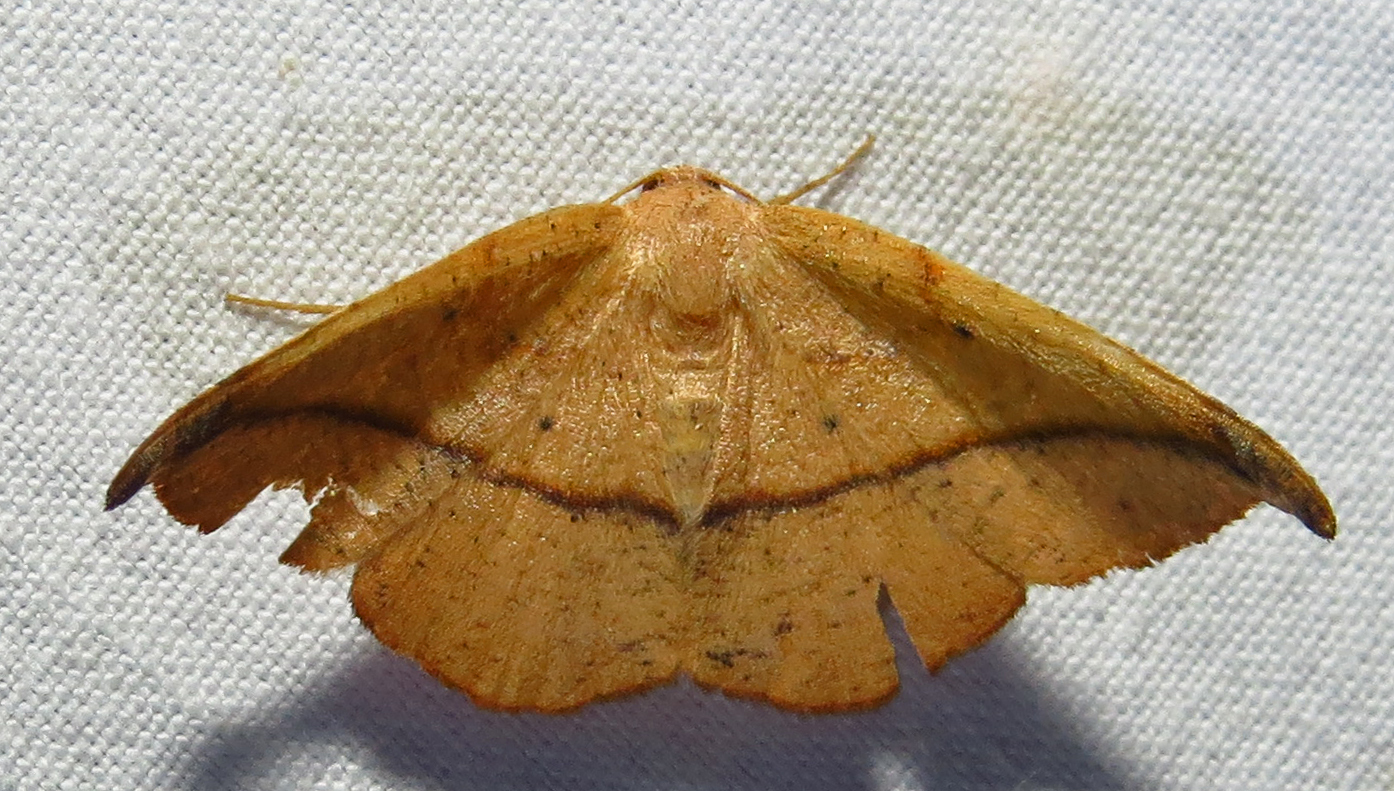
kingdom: Animalia
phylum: Arthropoda
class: Insecta
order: Lepidoptera
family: Geometridae
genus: Patalene
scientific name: Patalene olyzonaria
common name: Juniper geometer moth
